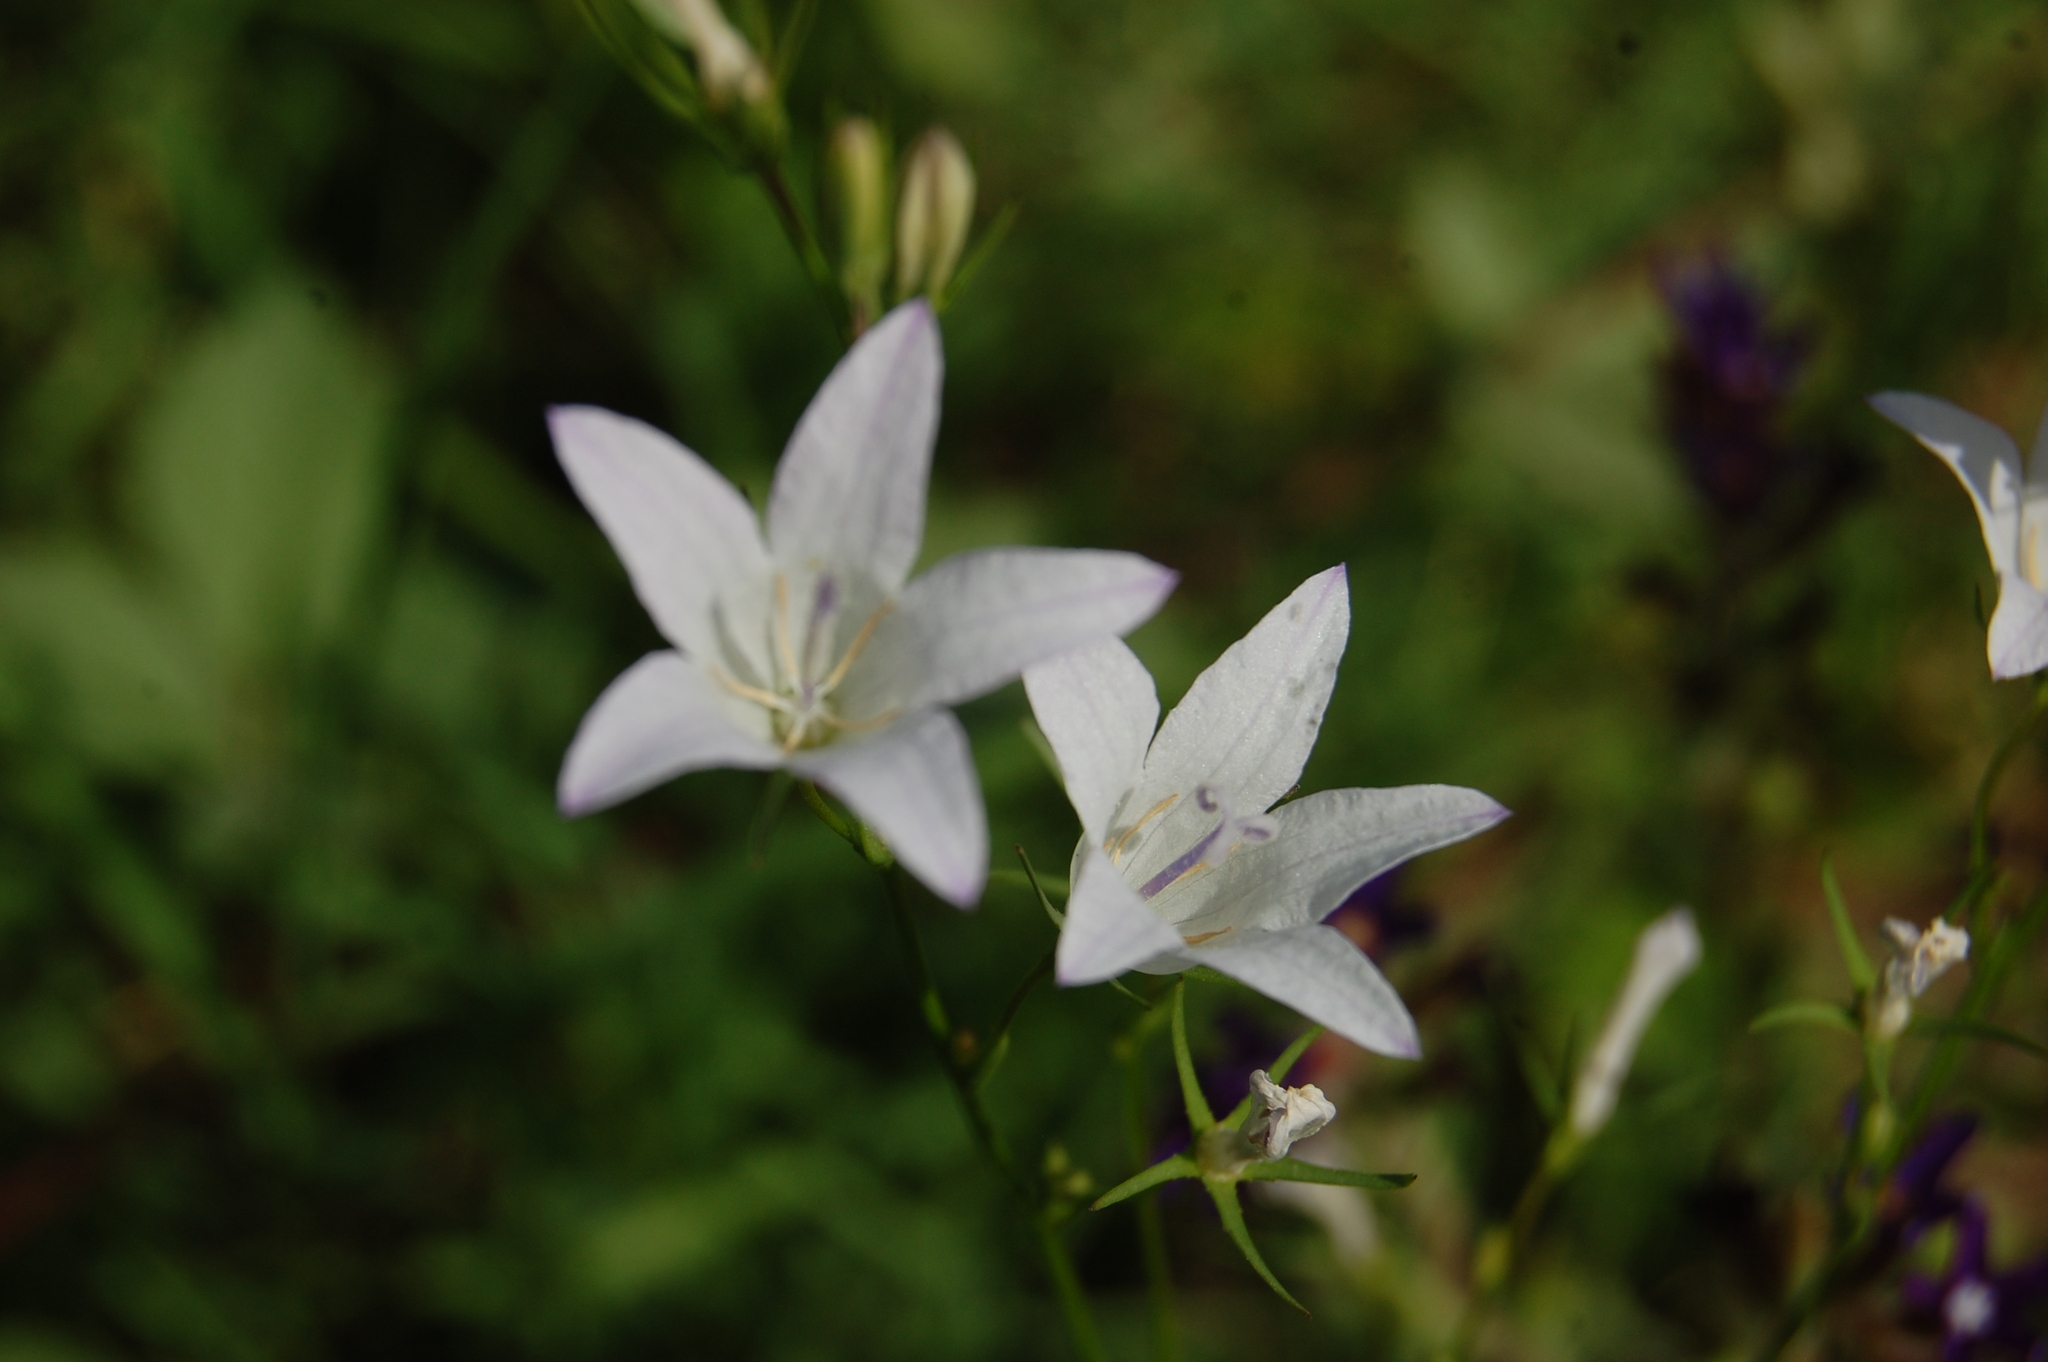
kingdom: Plantae
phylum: Tracheophyta
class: Magnoliopsida
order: Asterales
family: Campanulaceae
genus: Campanula
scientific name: Campanula rapunculus
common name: Rampion bellflower
